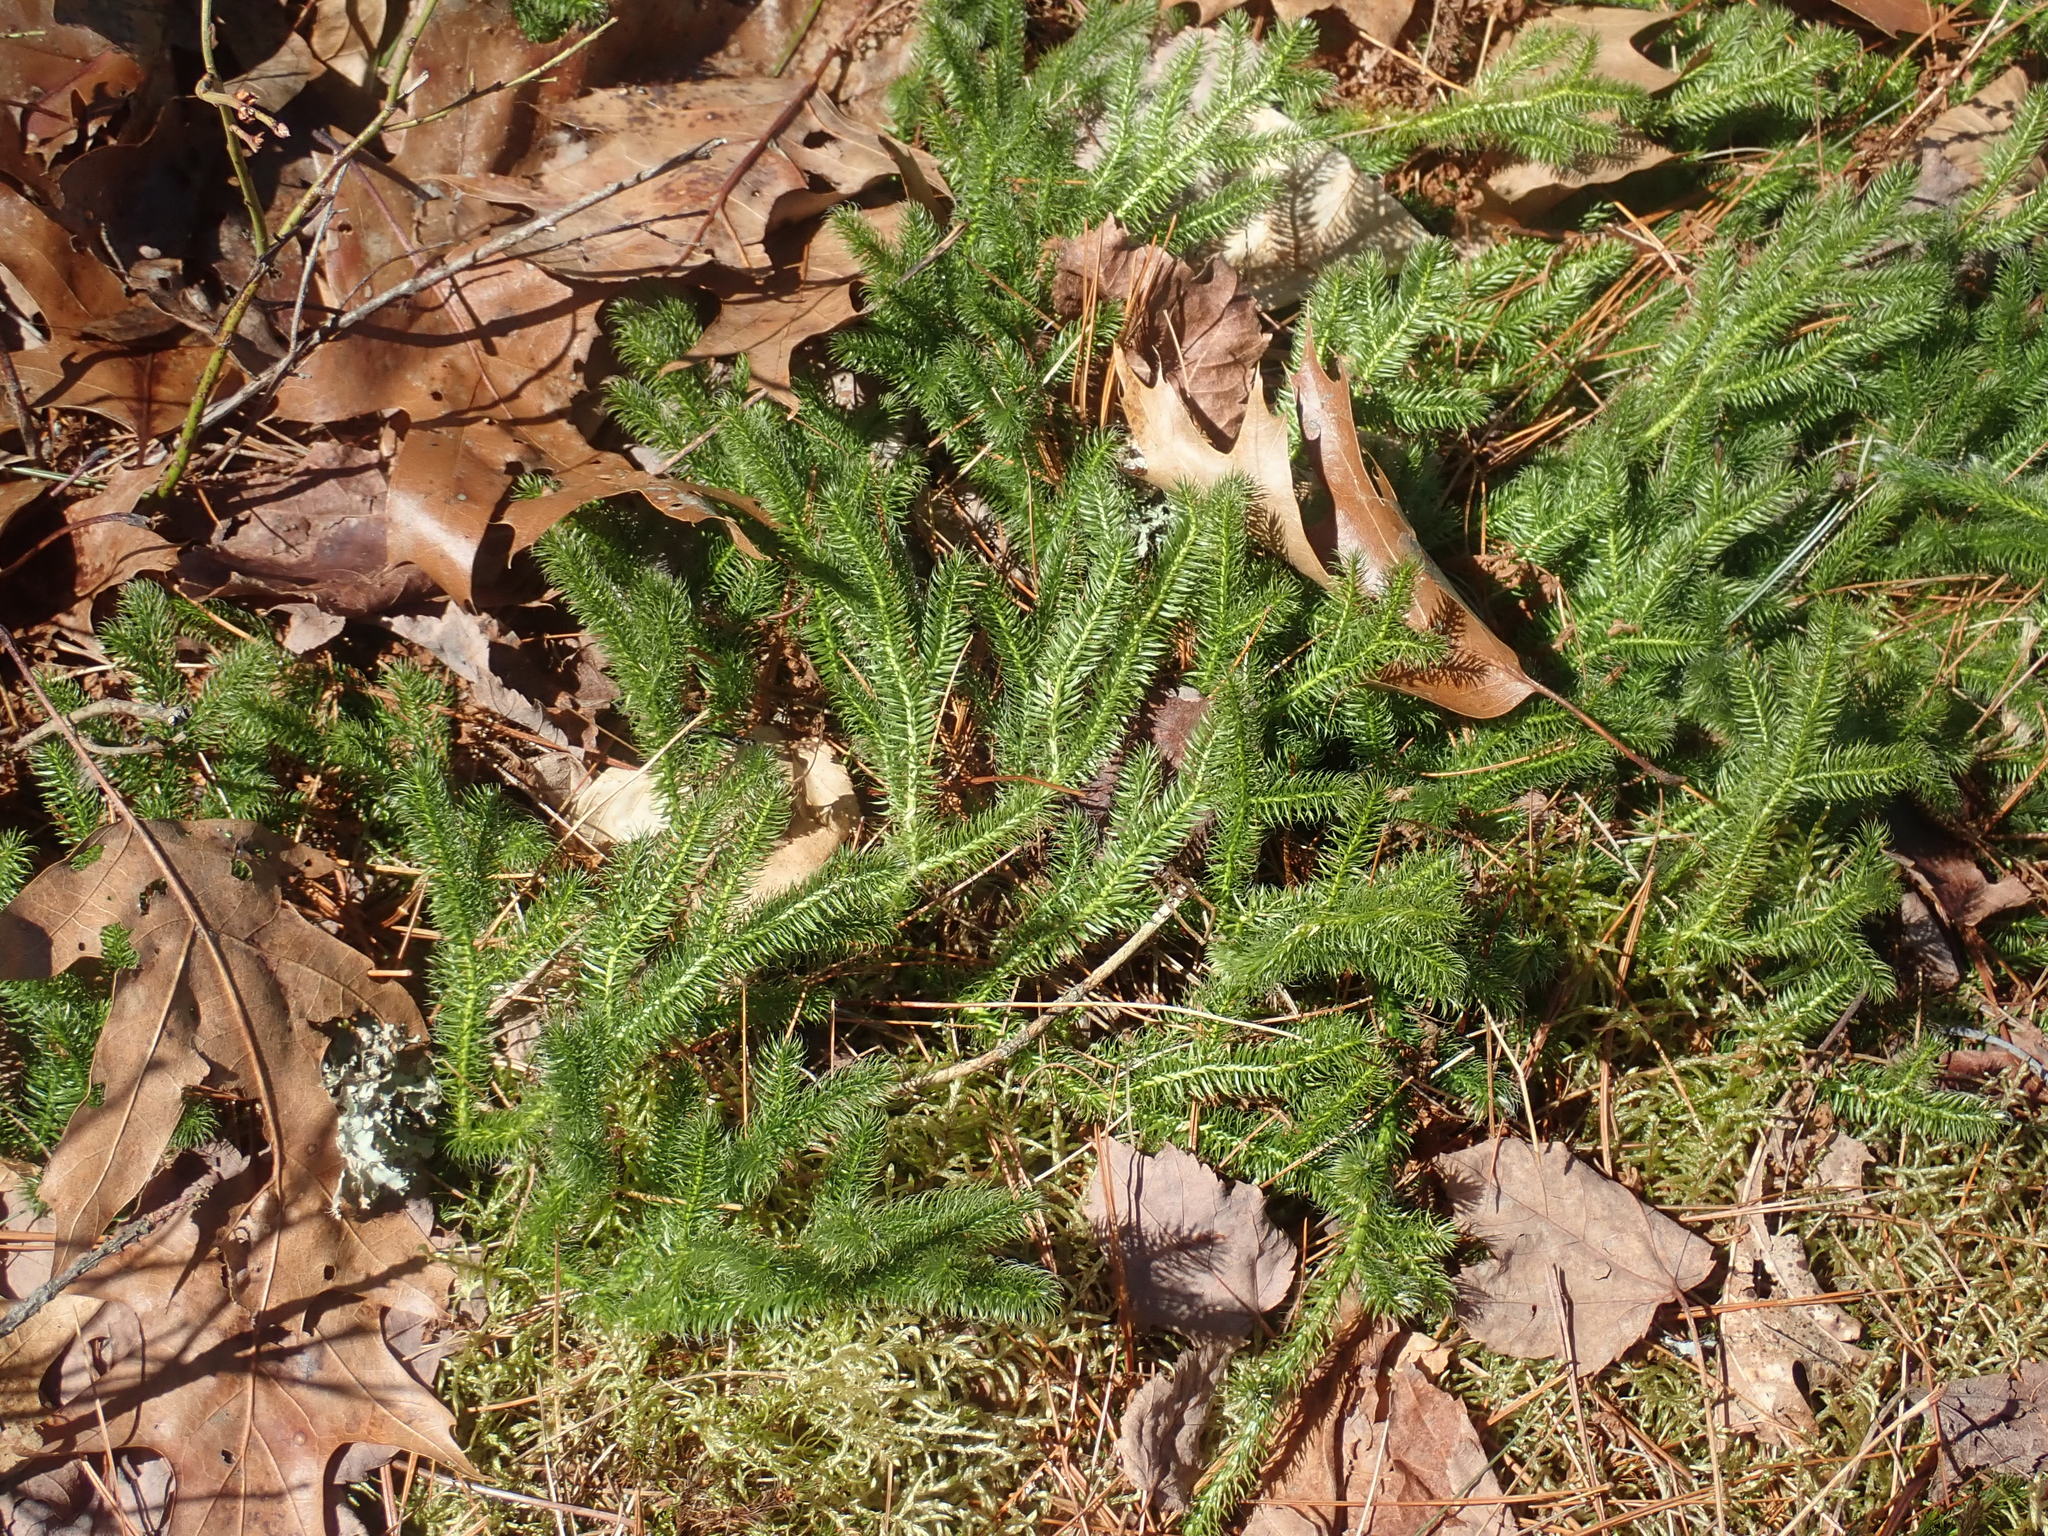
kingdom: Plantae
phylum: Tracheophyta
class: Lycopodiopsida
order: Lycopodiales
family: Lycopodiaceae
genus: Lycopodium
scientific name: Lycopodium clavatum
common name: Stag's-horn clubmoss
